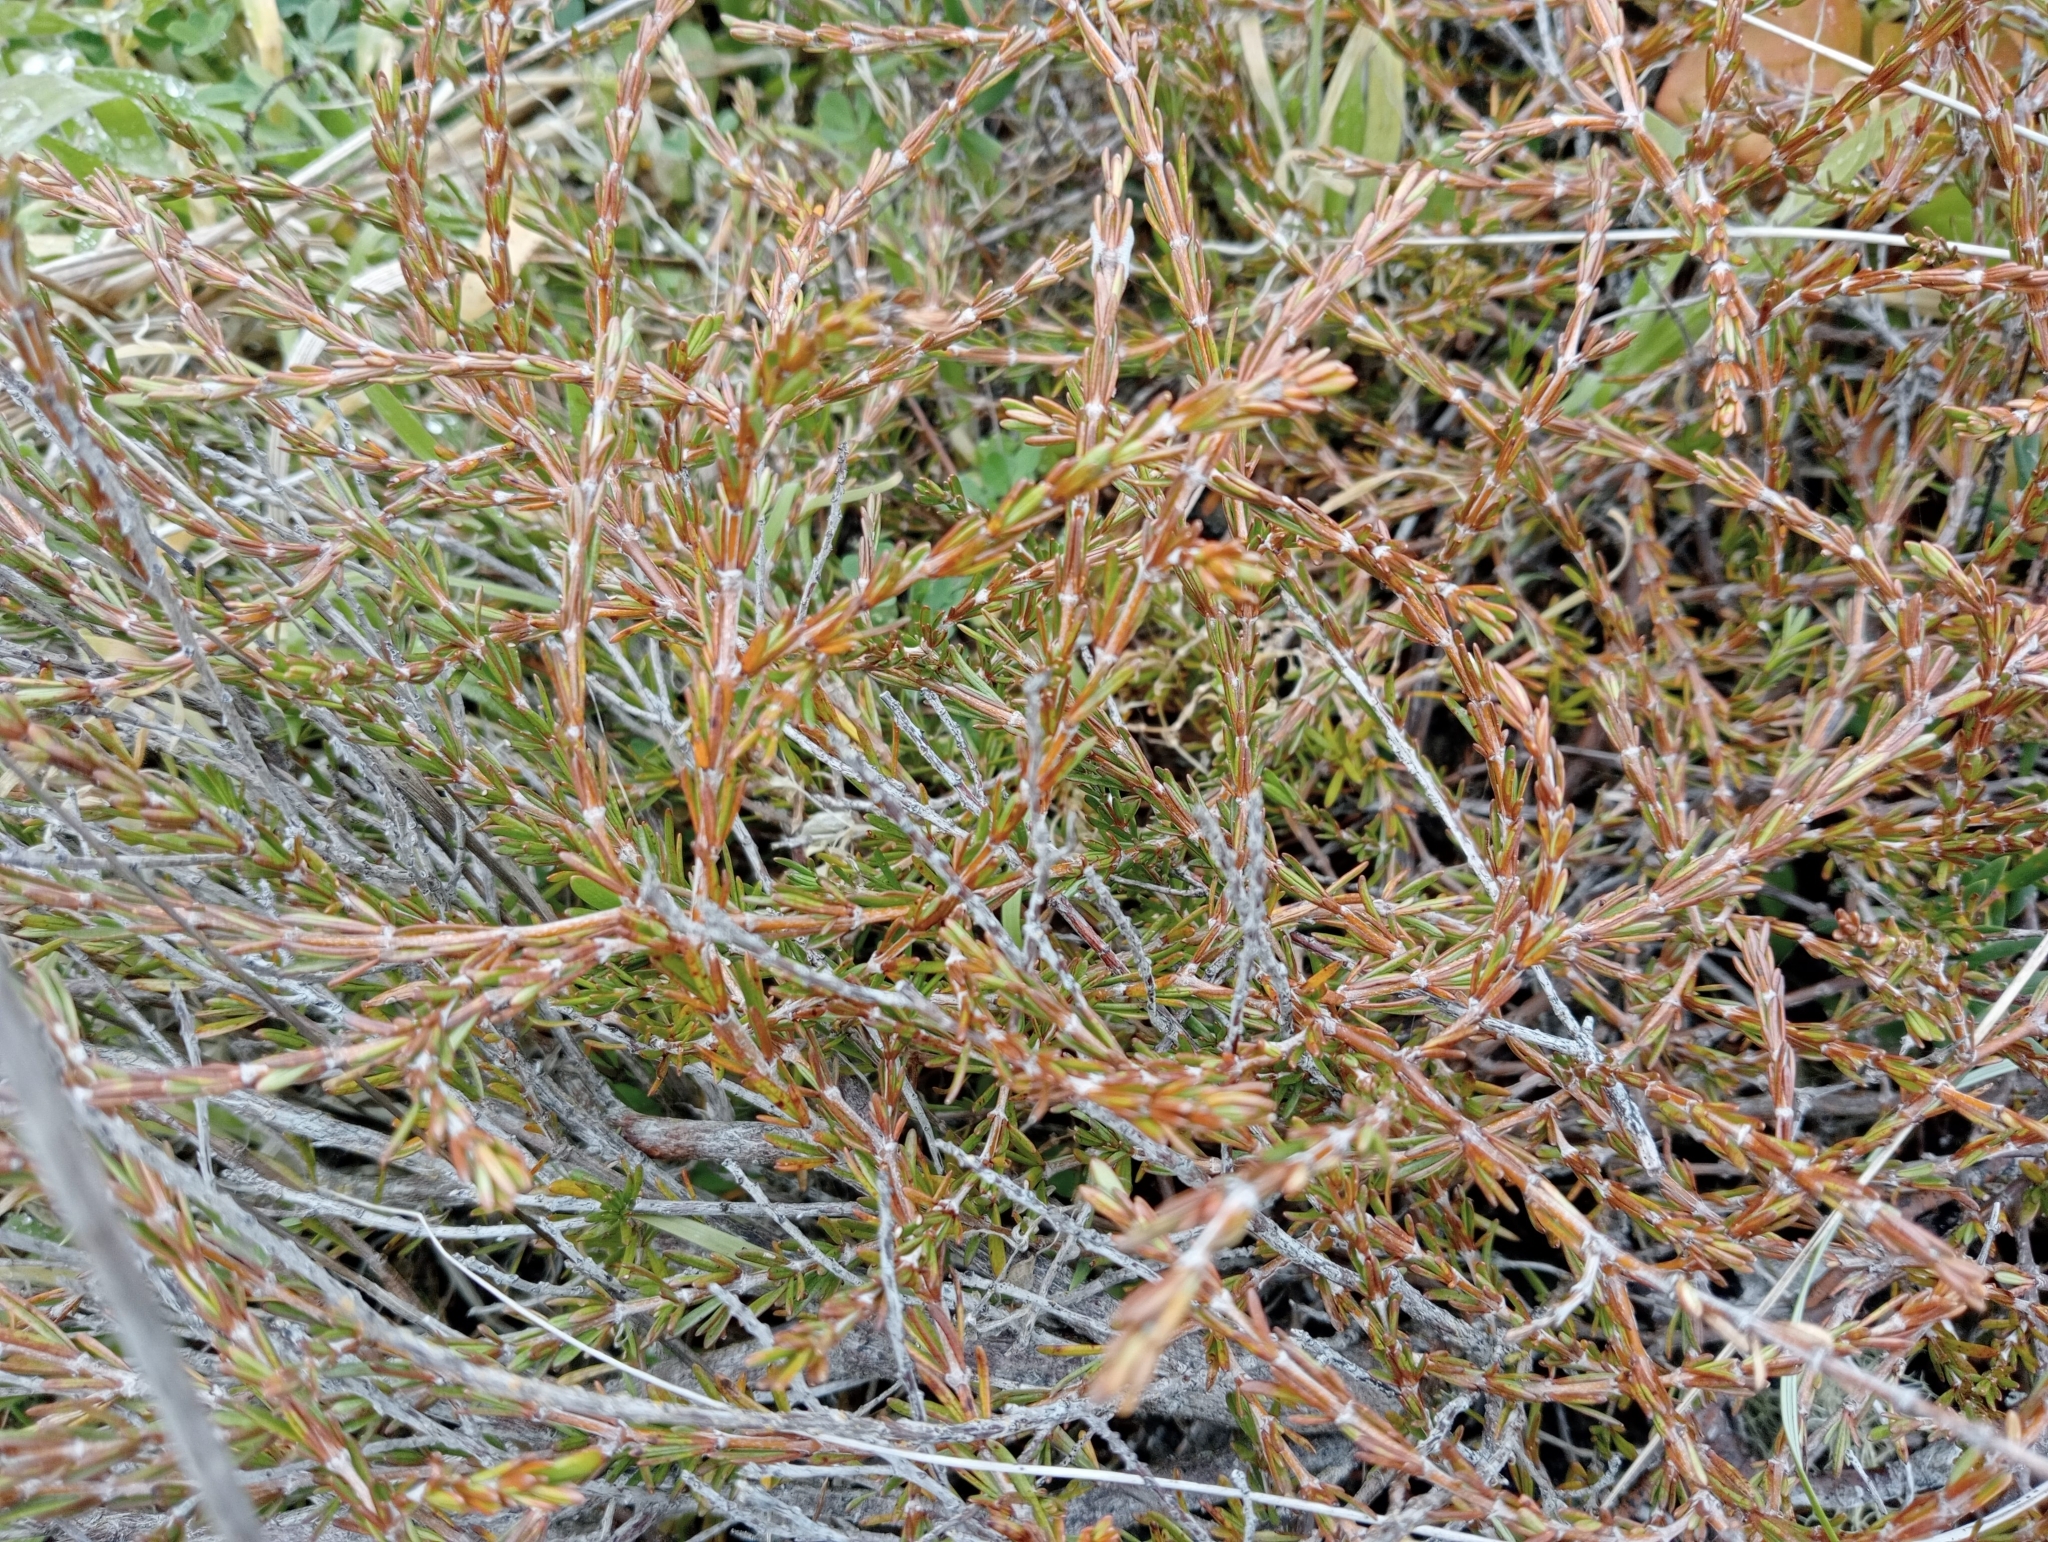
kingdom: Plantae
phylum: Tracheophyta
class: Magnoliopsida
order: Gentianales
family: Rubiaceae
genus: Coprosma
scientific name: Coprosma acerosa
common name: Sand coprosma
